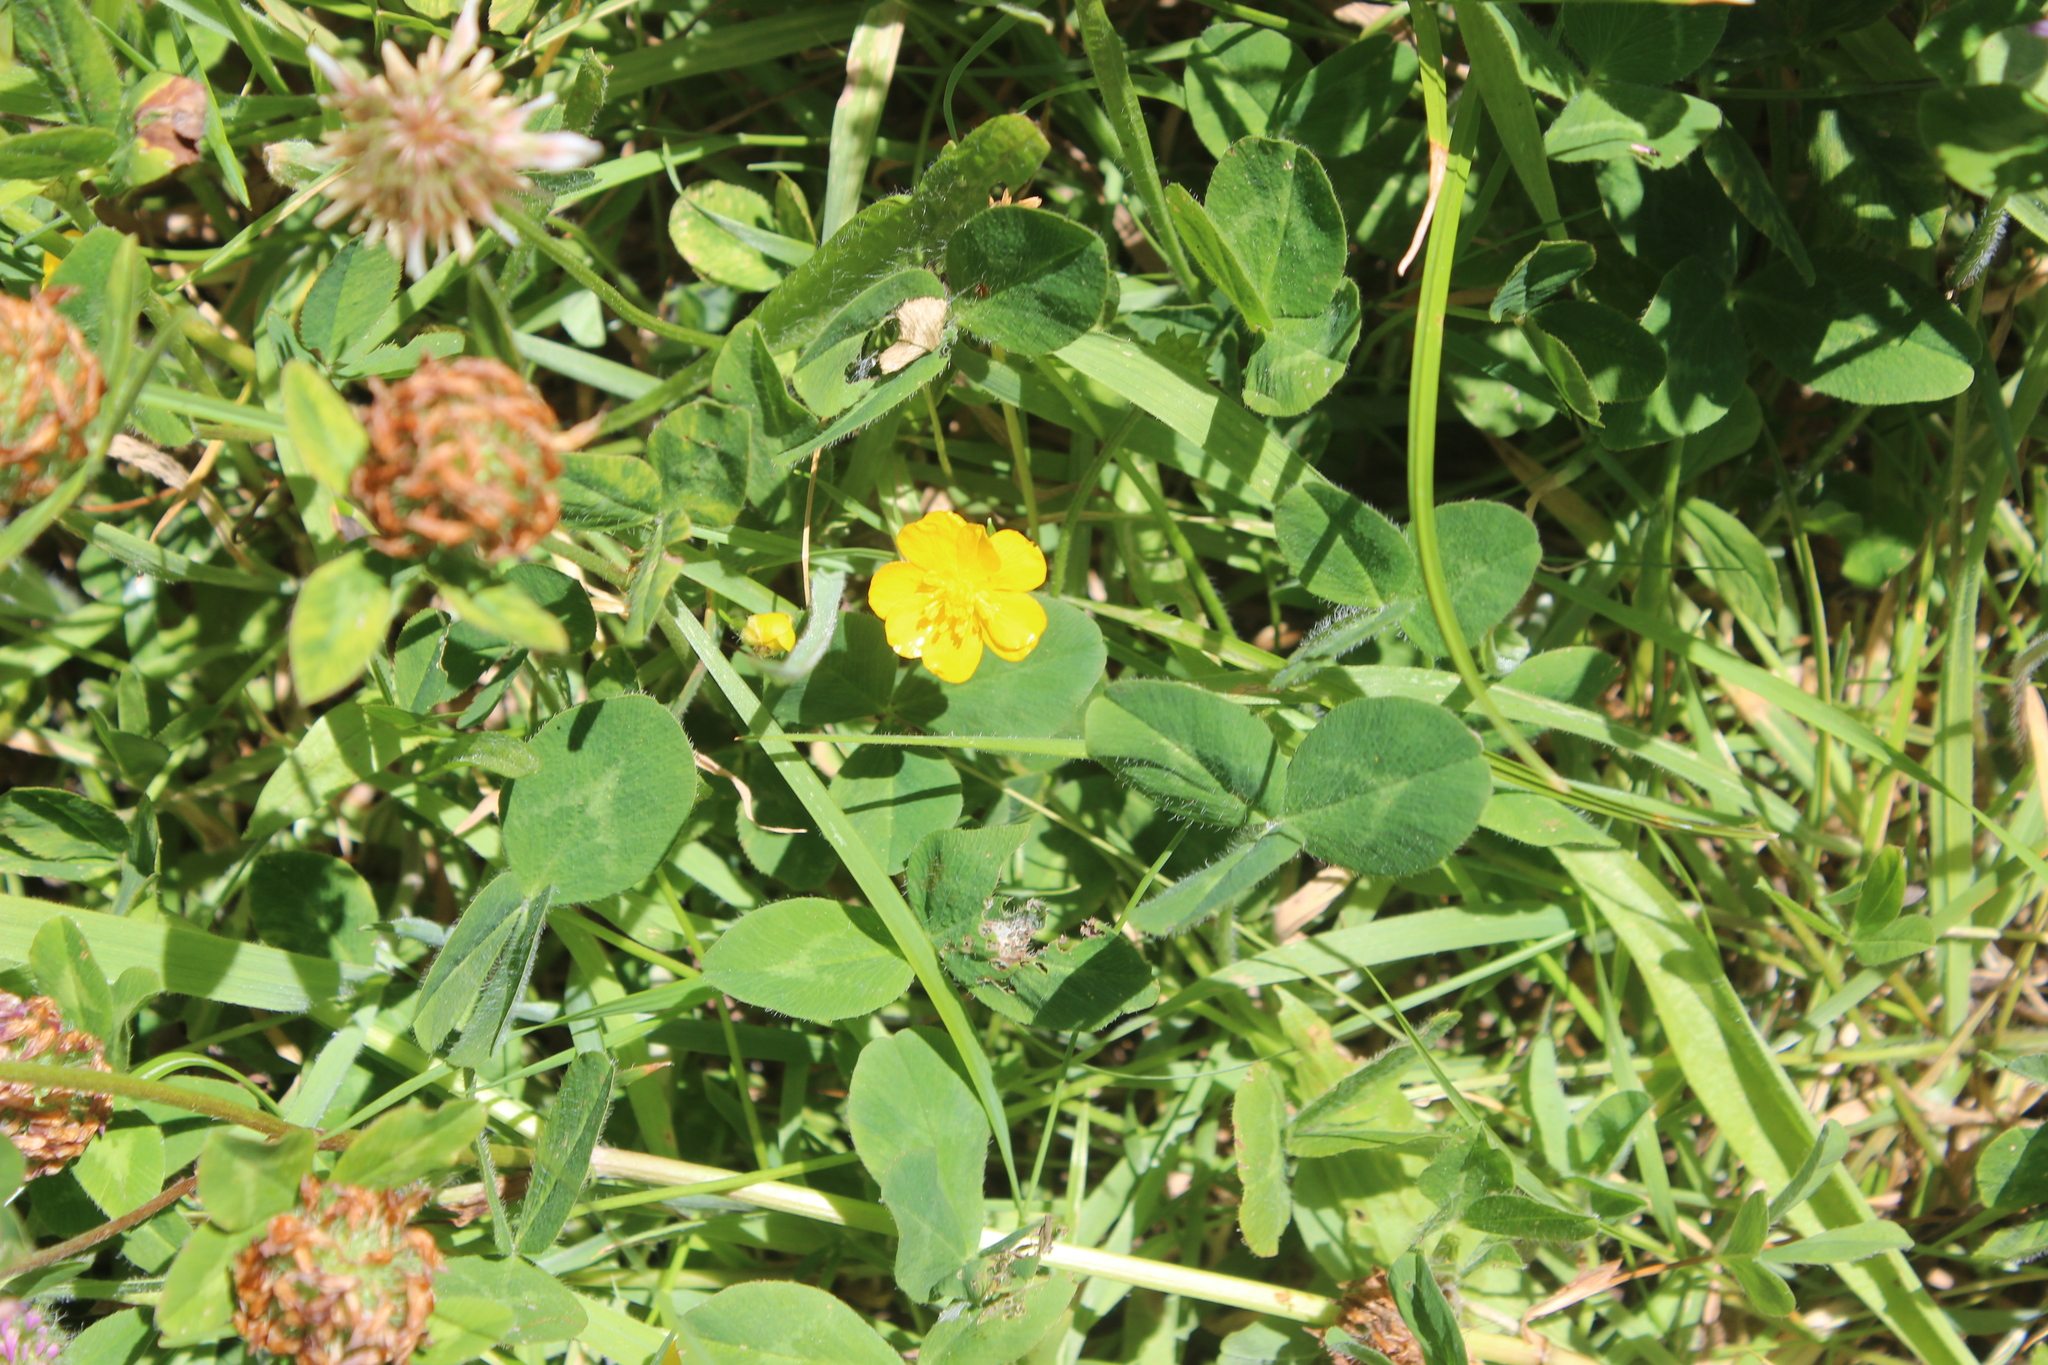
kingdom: Plantae
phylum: Tracheophyta
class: Magnoliopsida
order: Ranunculales
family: Ranunculaceae
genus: Ranunculus
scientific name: Ranunculus repens
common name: Creeping buttercup
